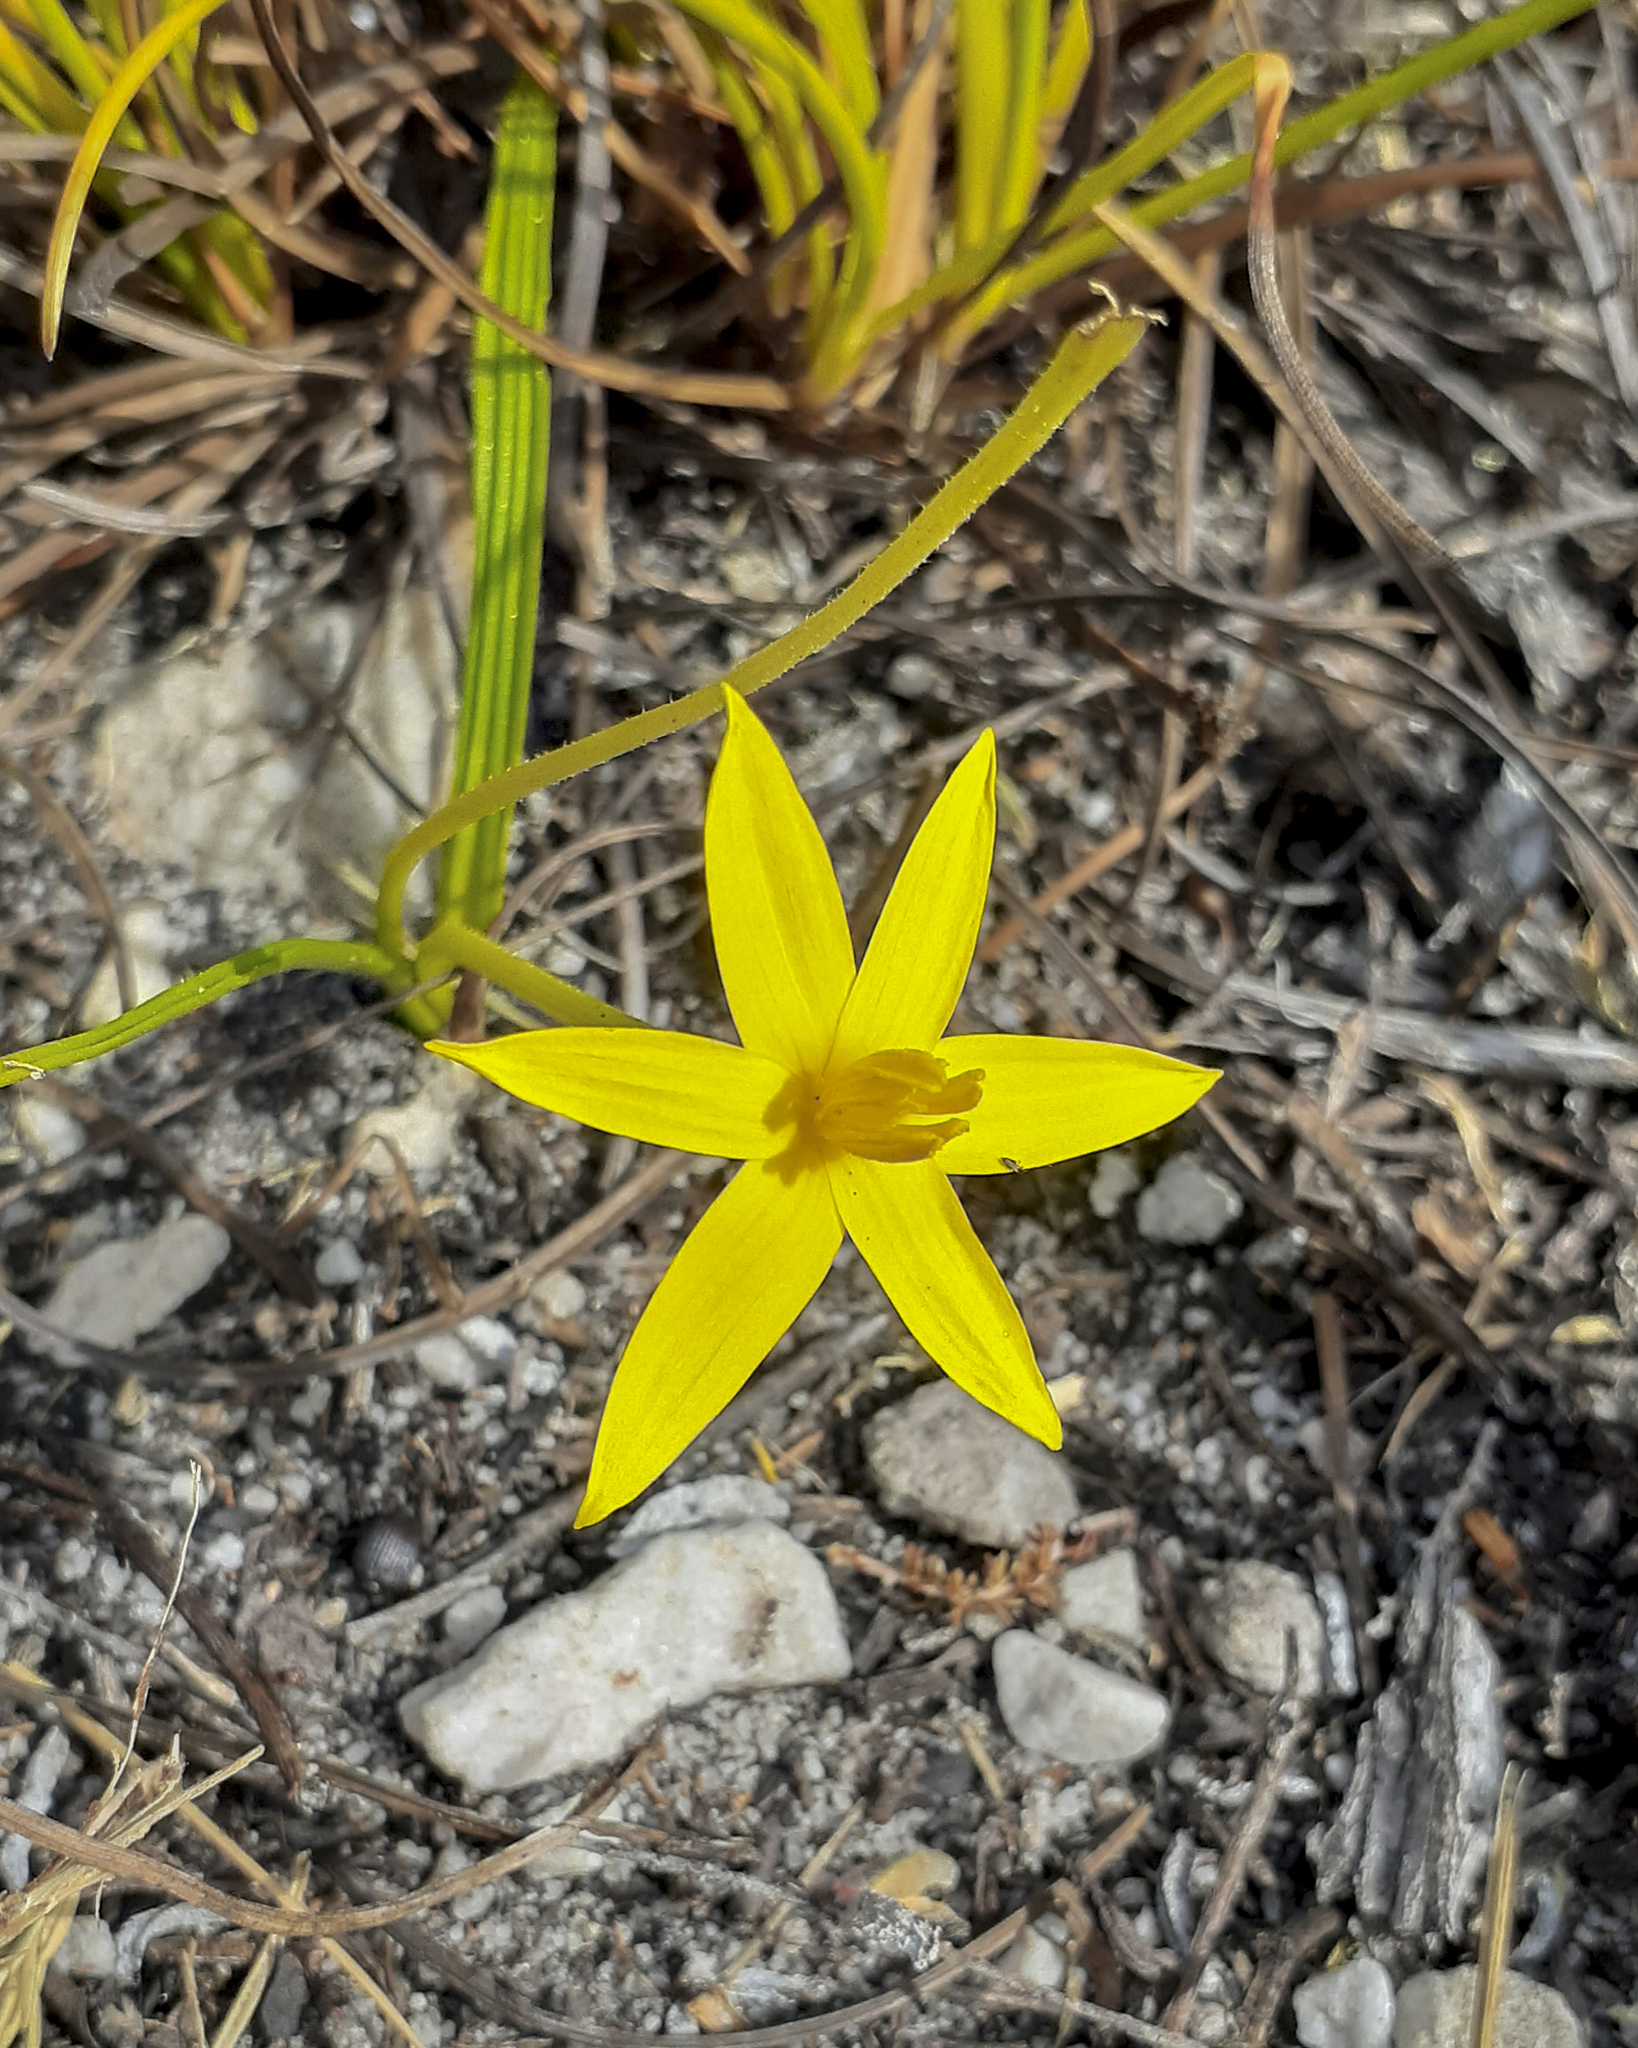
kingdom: Plantae
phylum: Tracheophyta
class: Liliopsida
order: Asparagales
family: Hypoxidaceae
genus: Empodium
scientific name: Empodium plicatum
